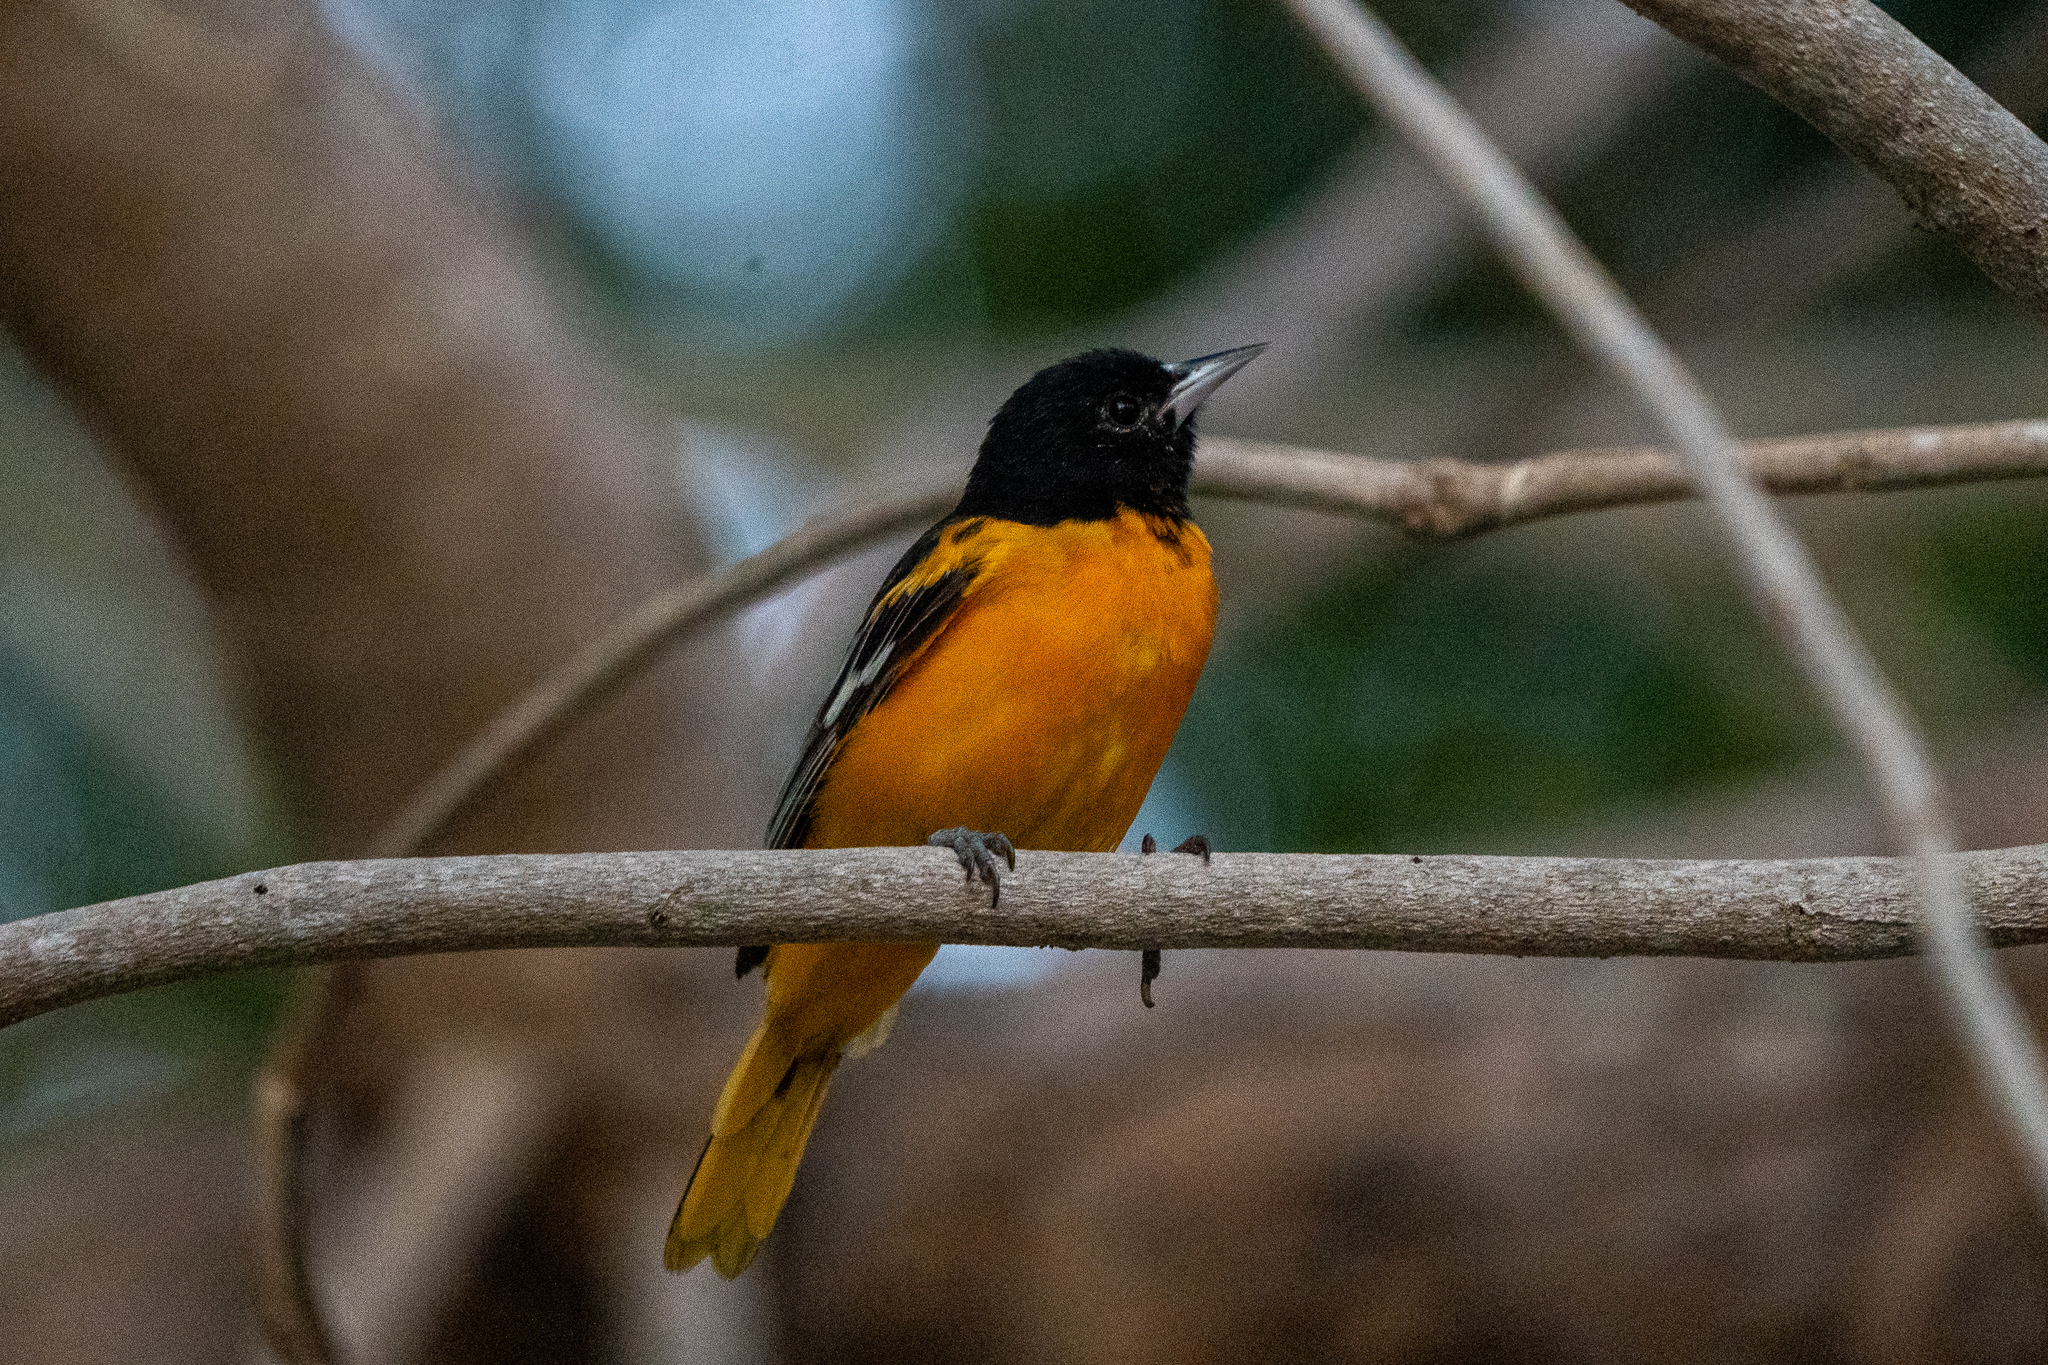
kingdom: Animalia
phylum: Chordata
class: Aves
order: Passeriformes
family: Icteridae
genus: Icterus
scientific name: Icterus galbula
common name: Baltimore oriole
